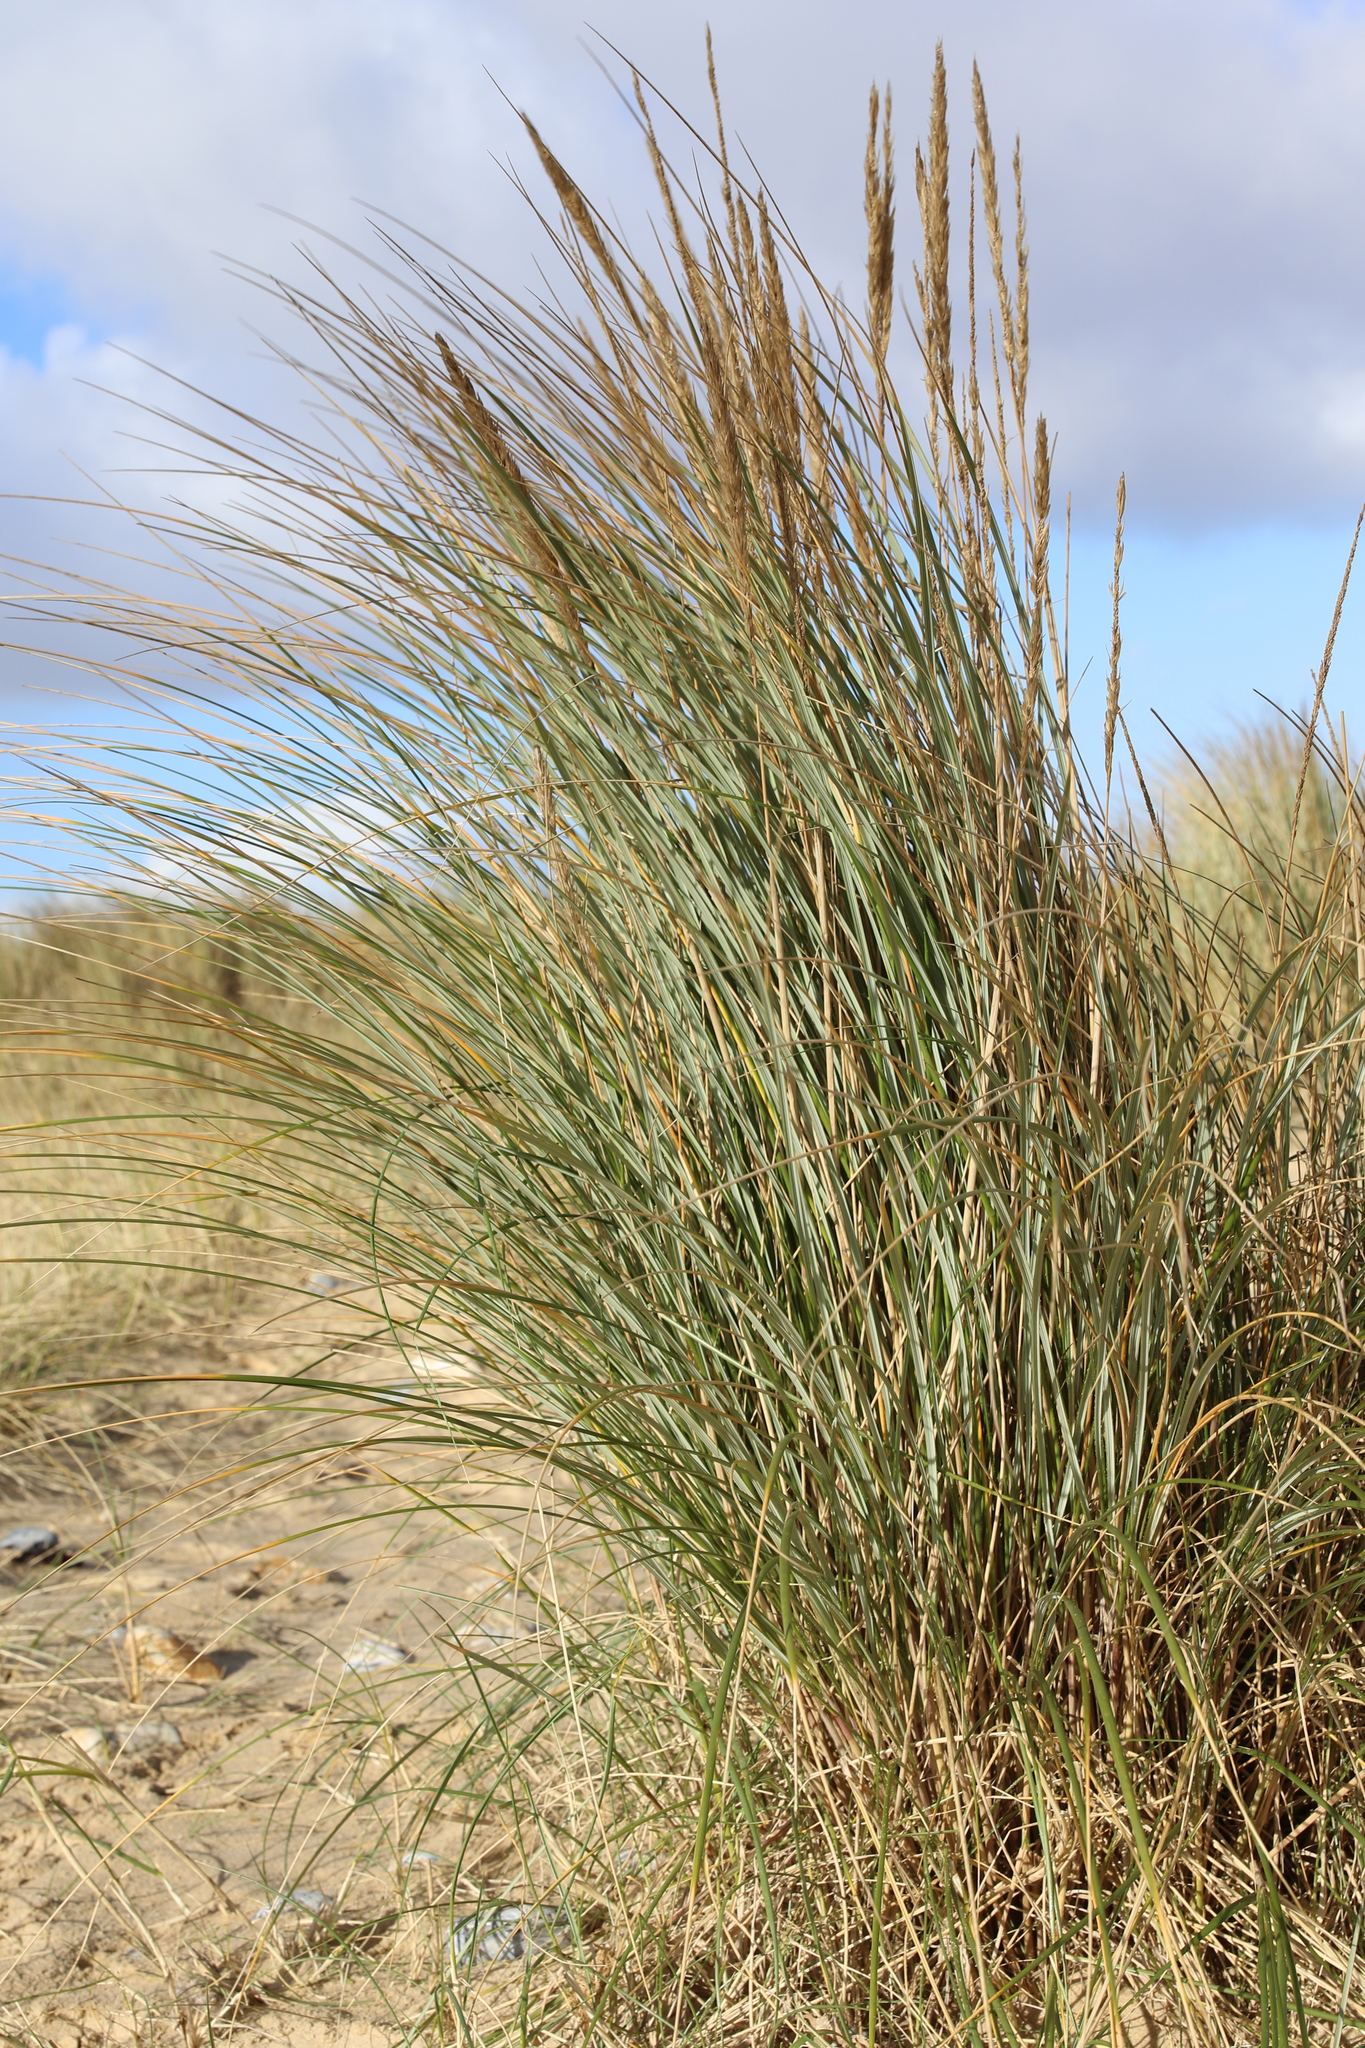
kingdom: Plantae
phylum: Tracheophyta
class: Liliopsida
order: Poales
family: Poaceae
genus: Calamagrostis
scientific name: Calamagrostis arenaria
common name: European beachgrass
